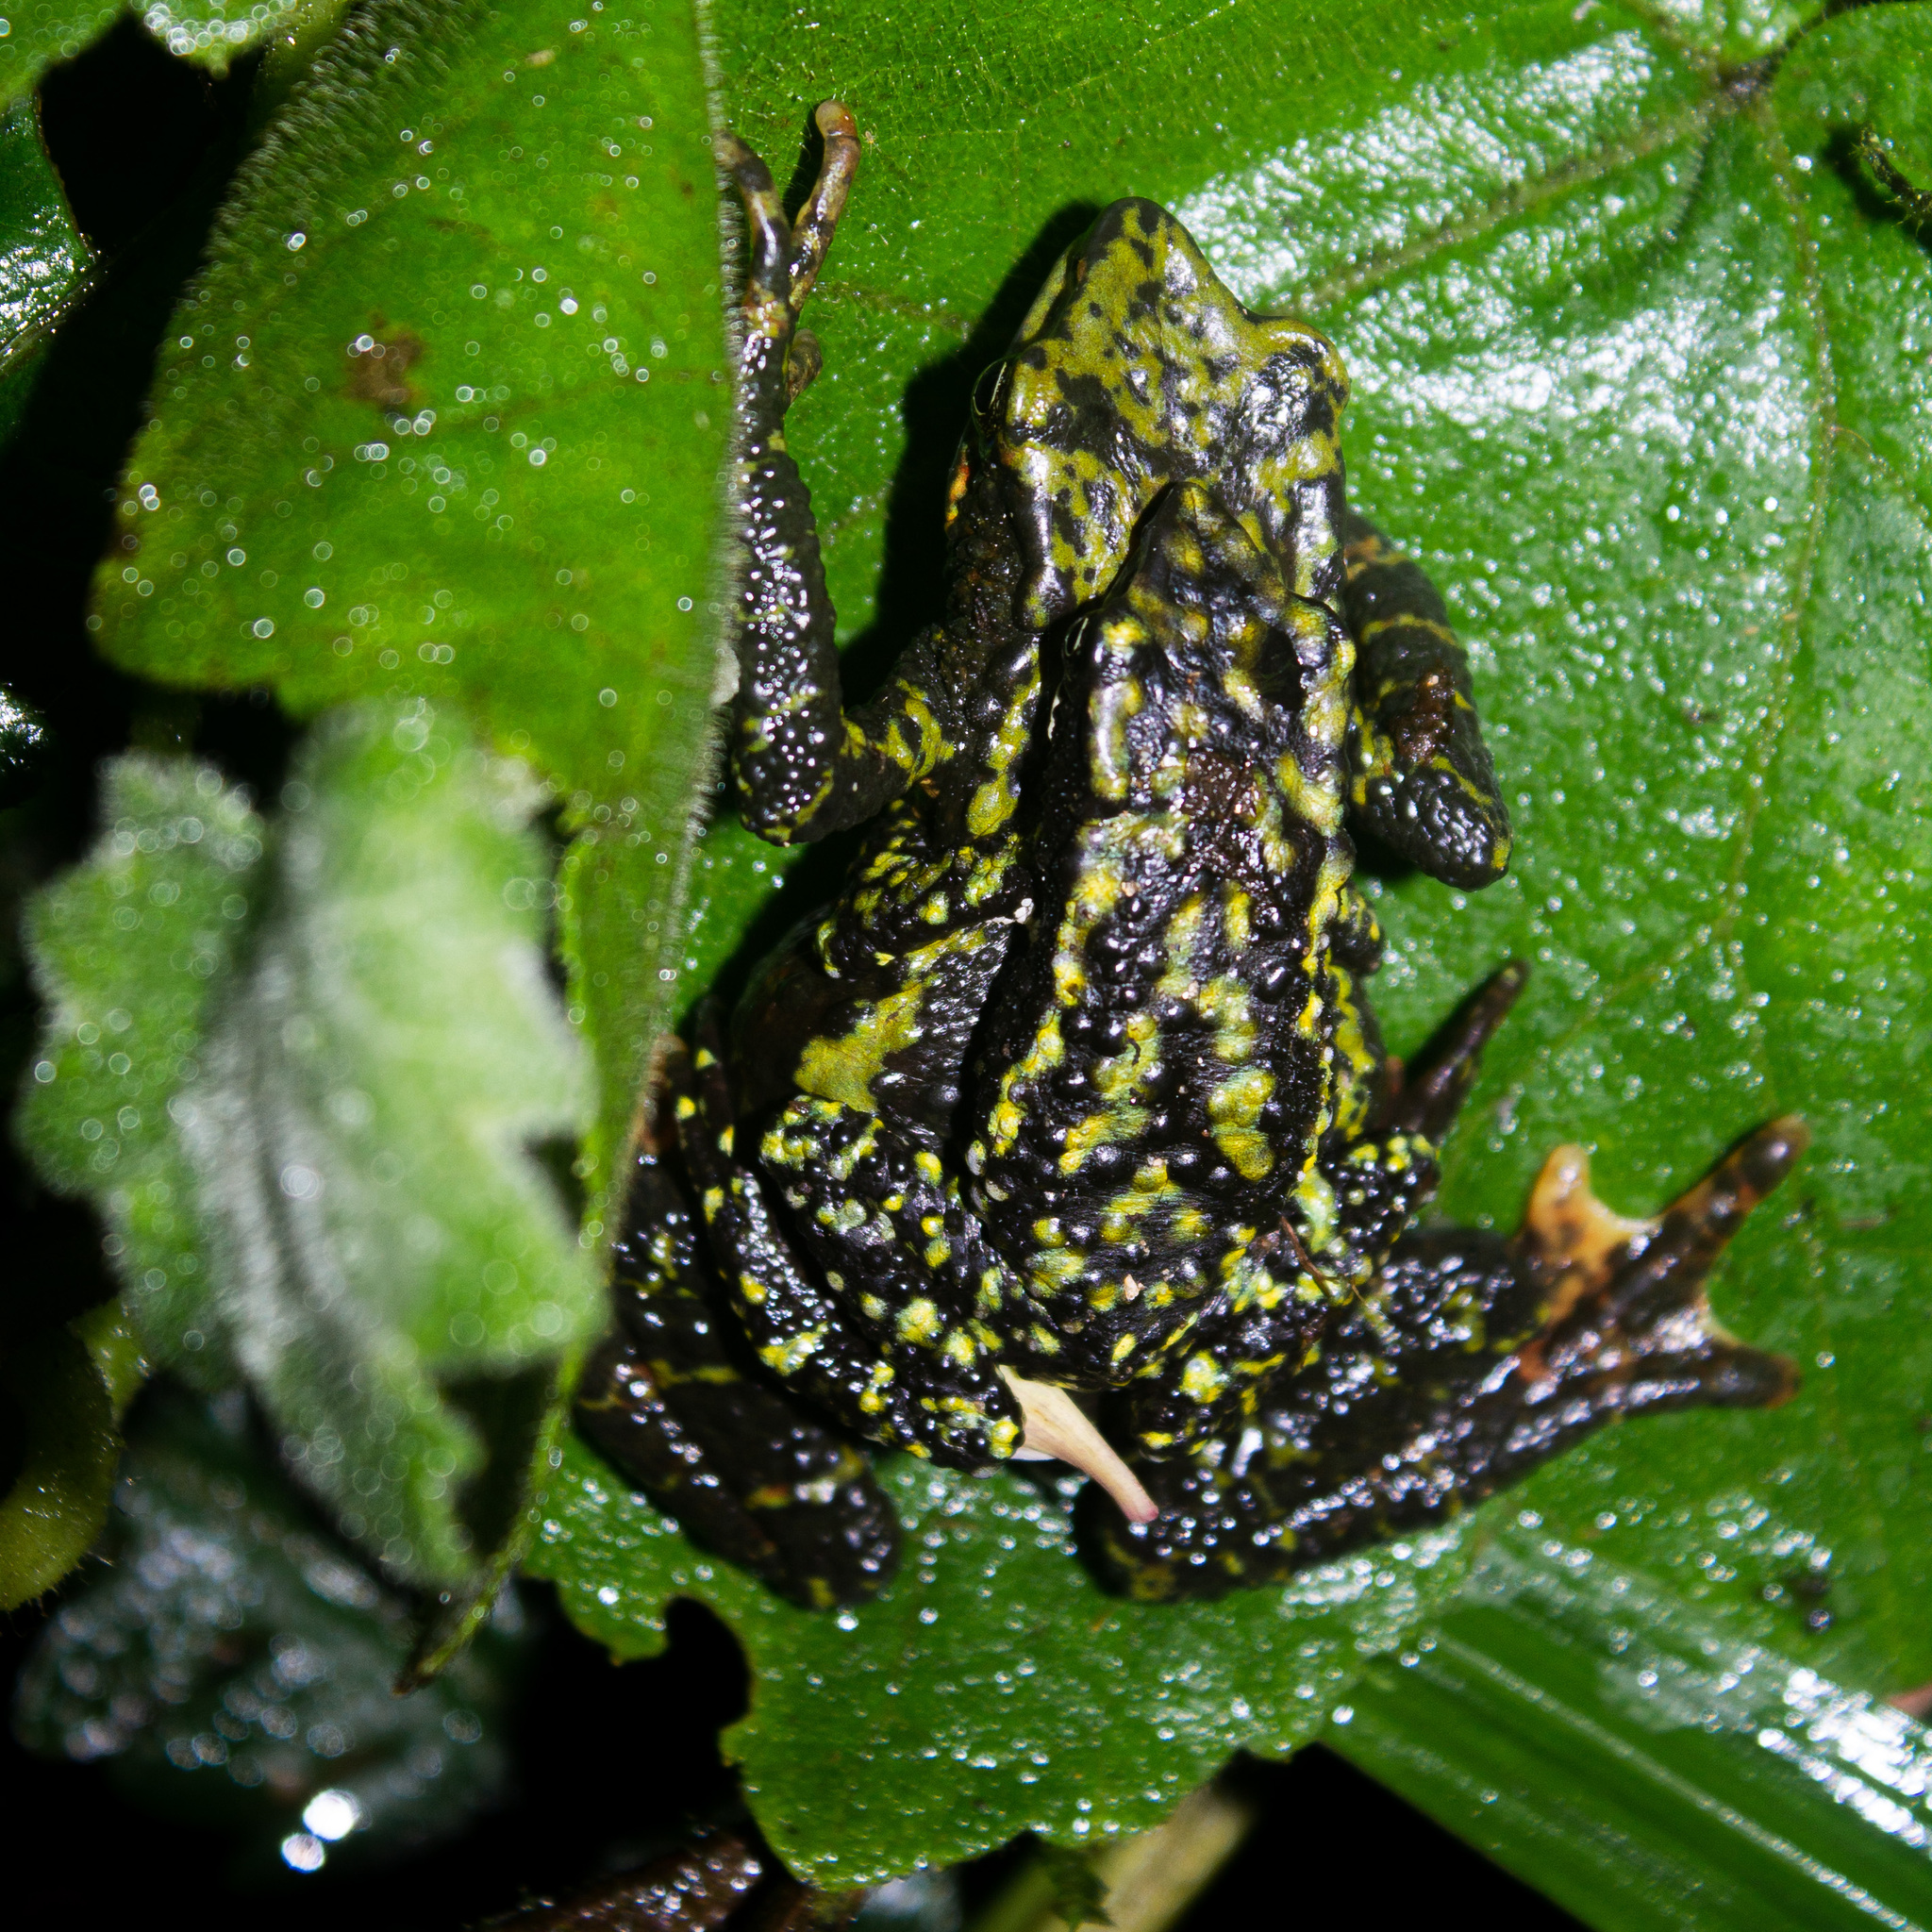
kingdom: Animalia
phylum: Chordata
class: Amphibia
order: Anura
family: Bufonidae
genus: Atelopus
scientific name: Atelopus laetissimus
